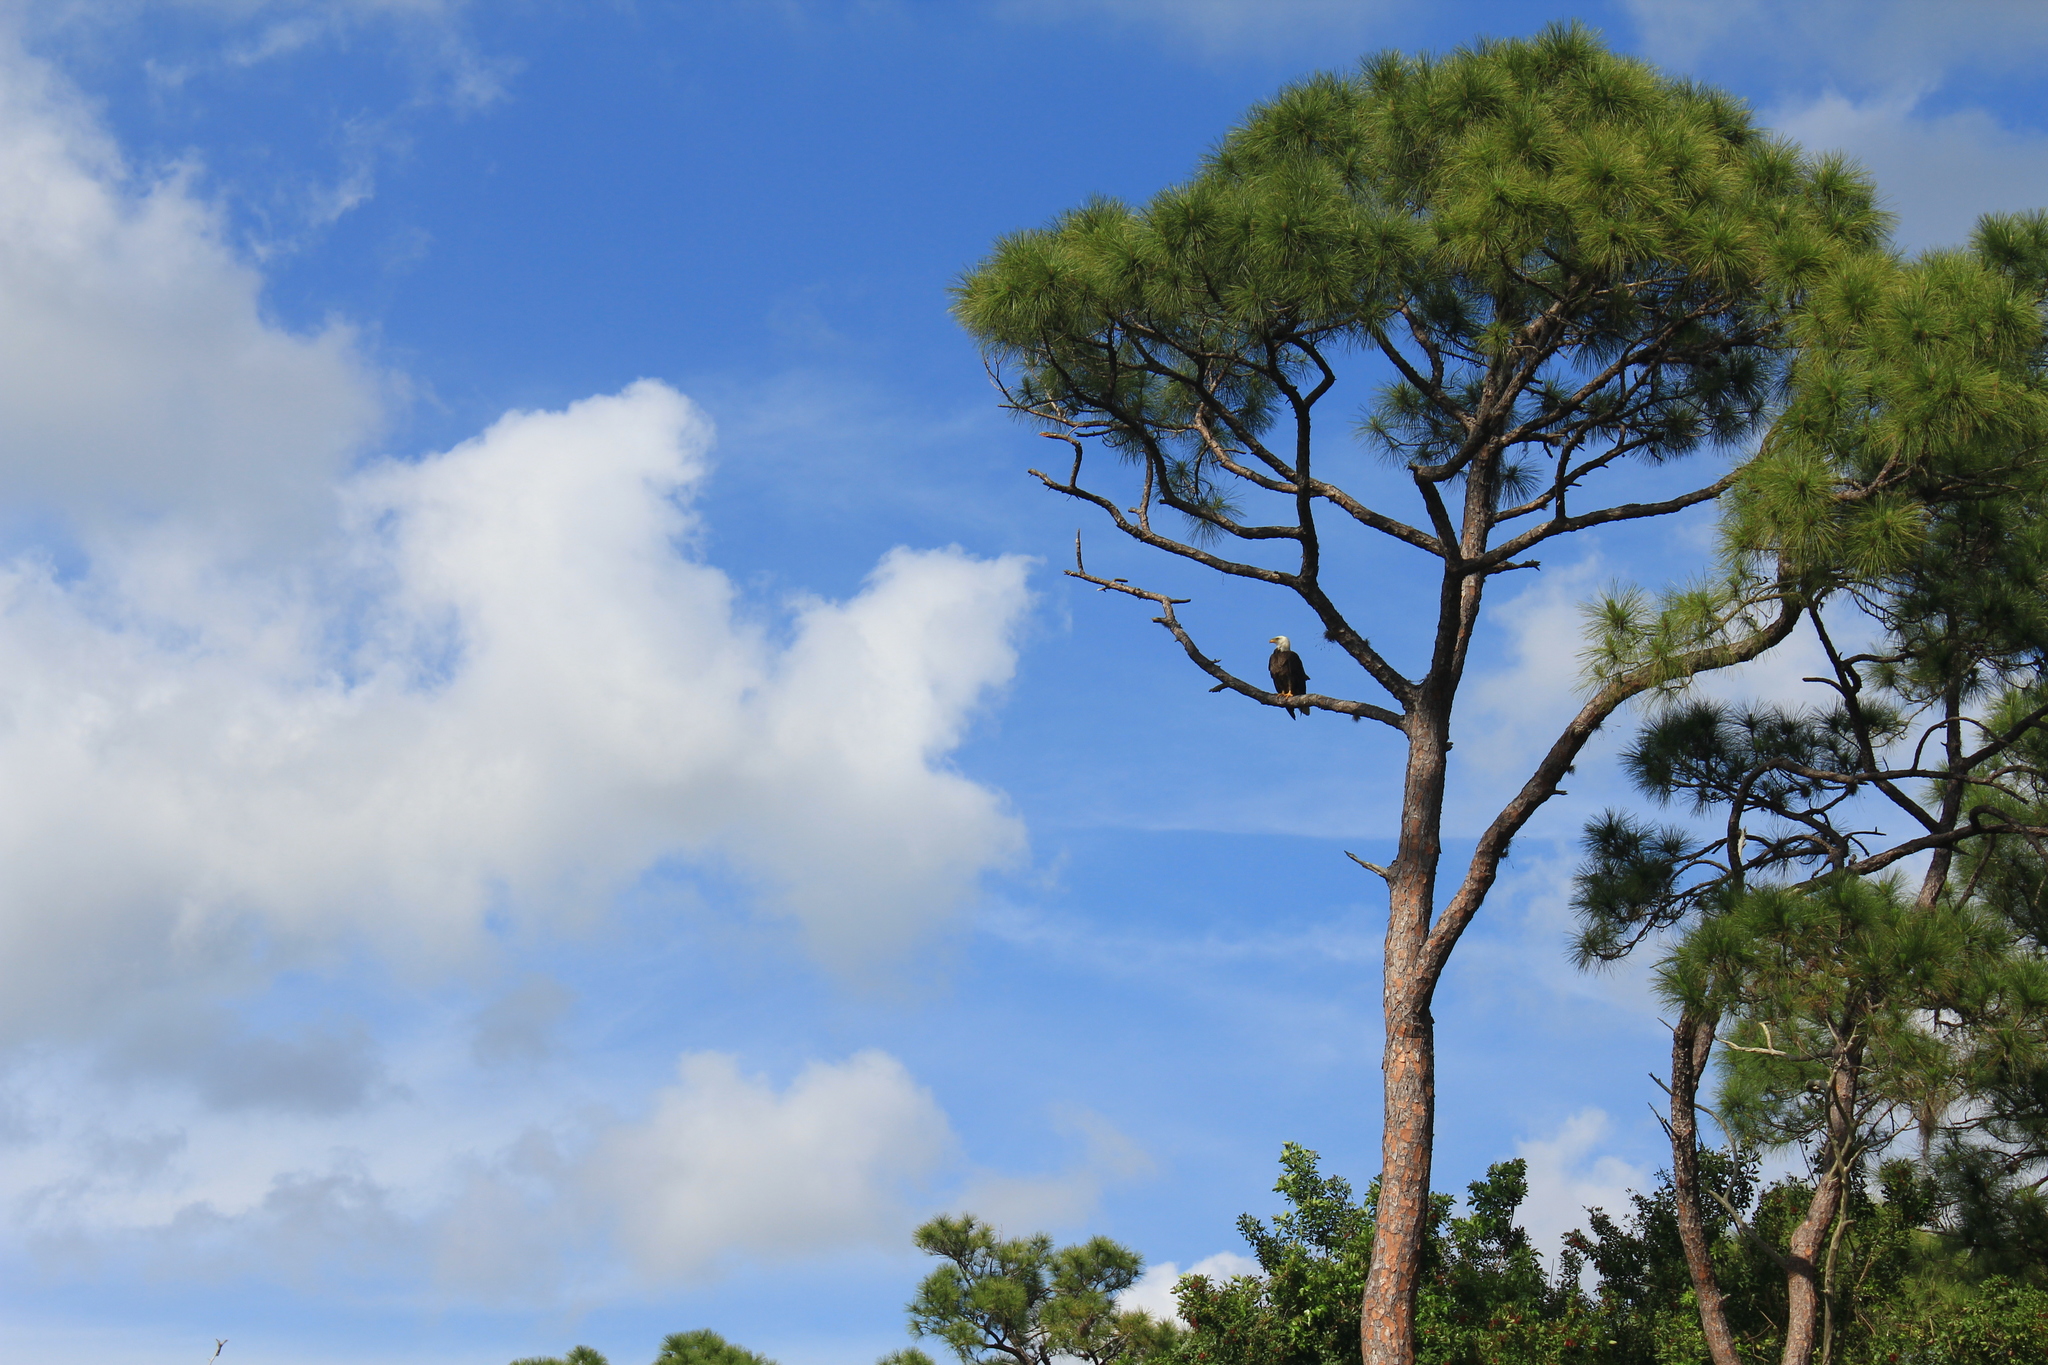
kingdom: Animalia
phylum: Chordata
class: Aves
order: Accipitriformes
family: Accipitridae
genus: Haliaeetus
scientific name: Haliaeetus leucocephalus
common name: Bald eagle
